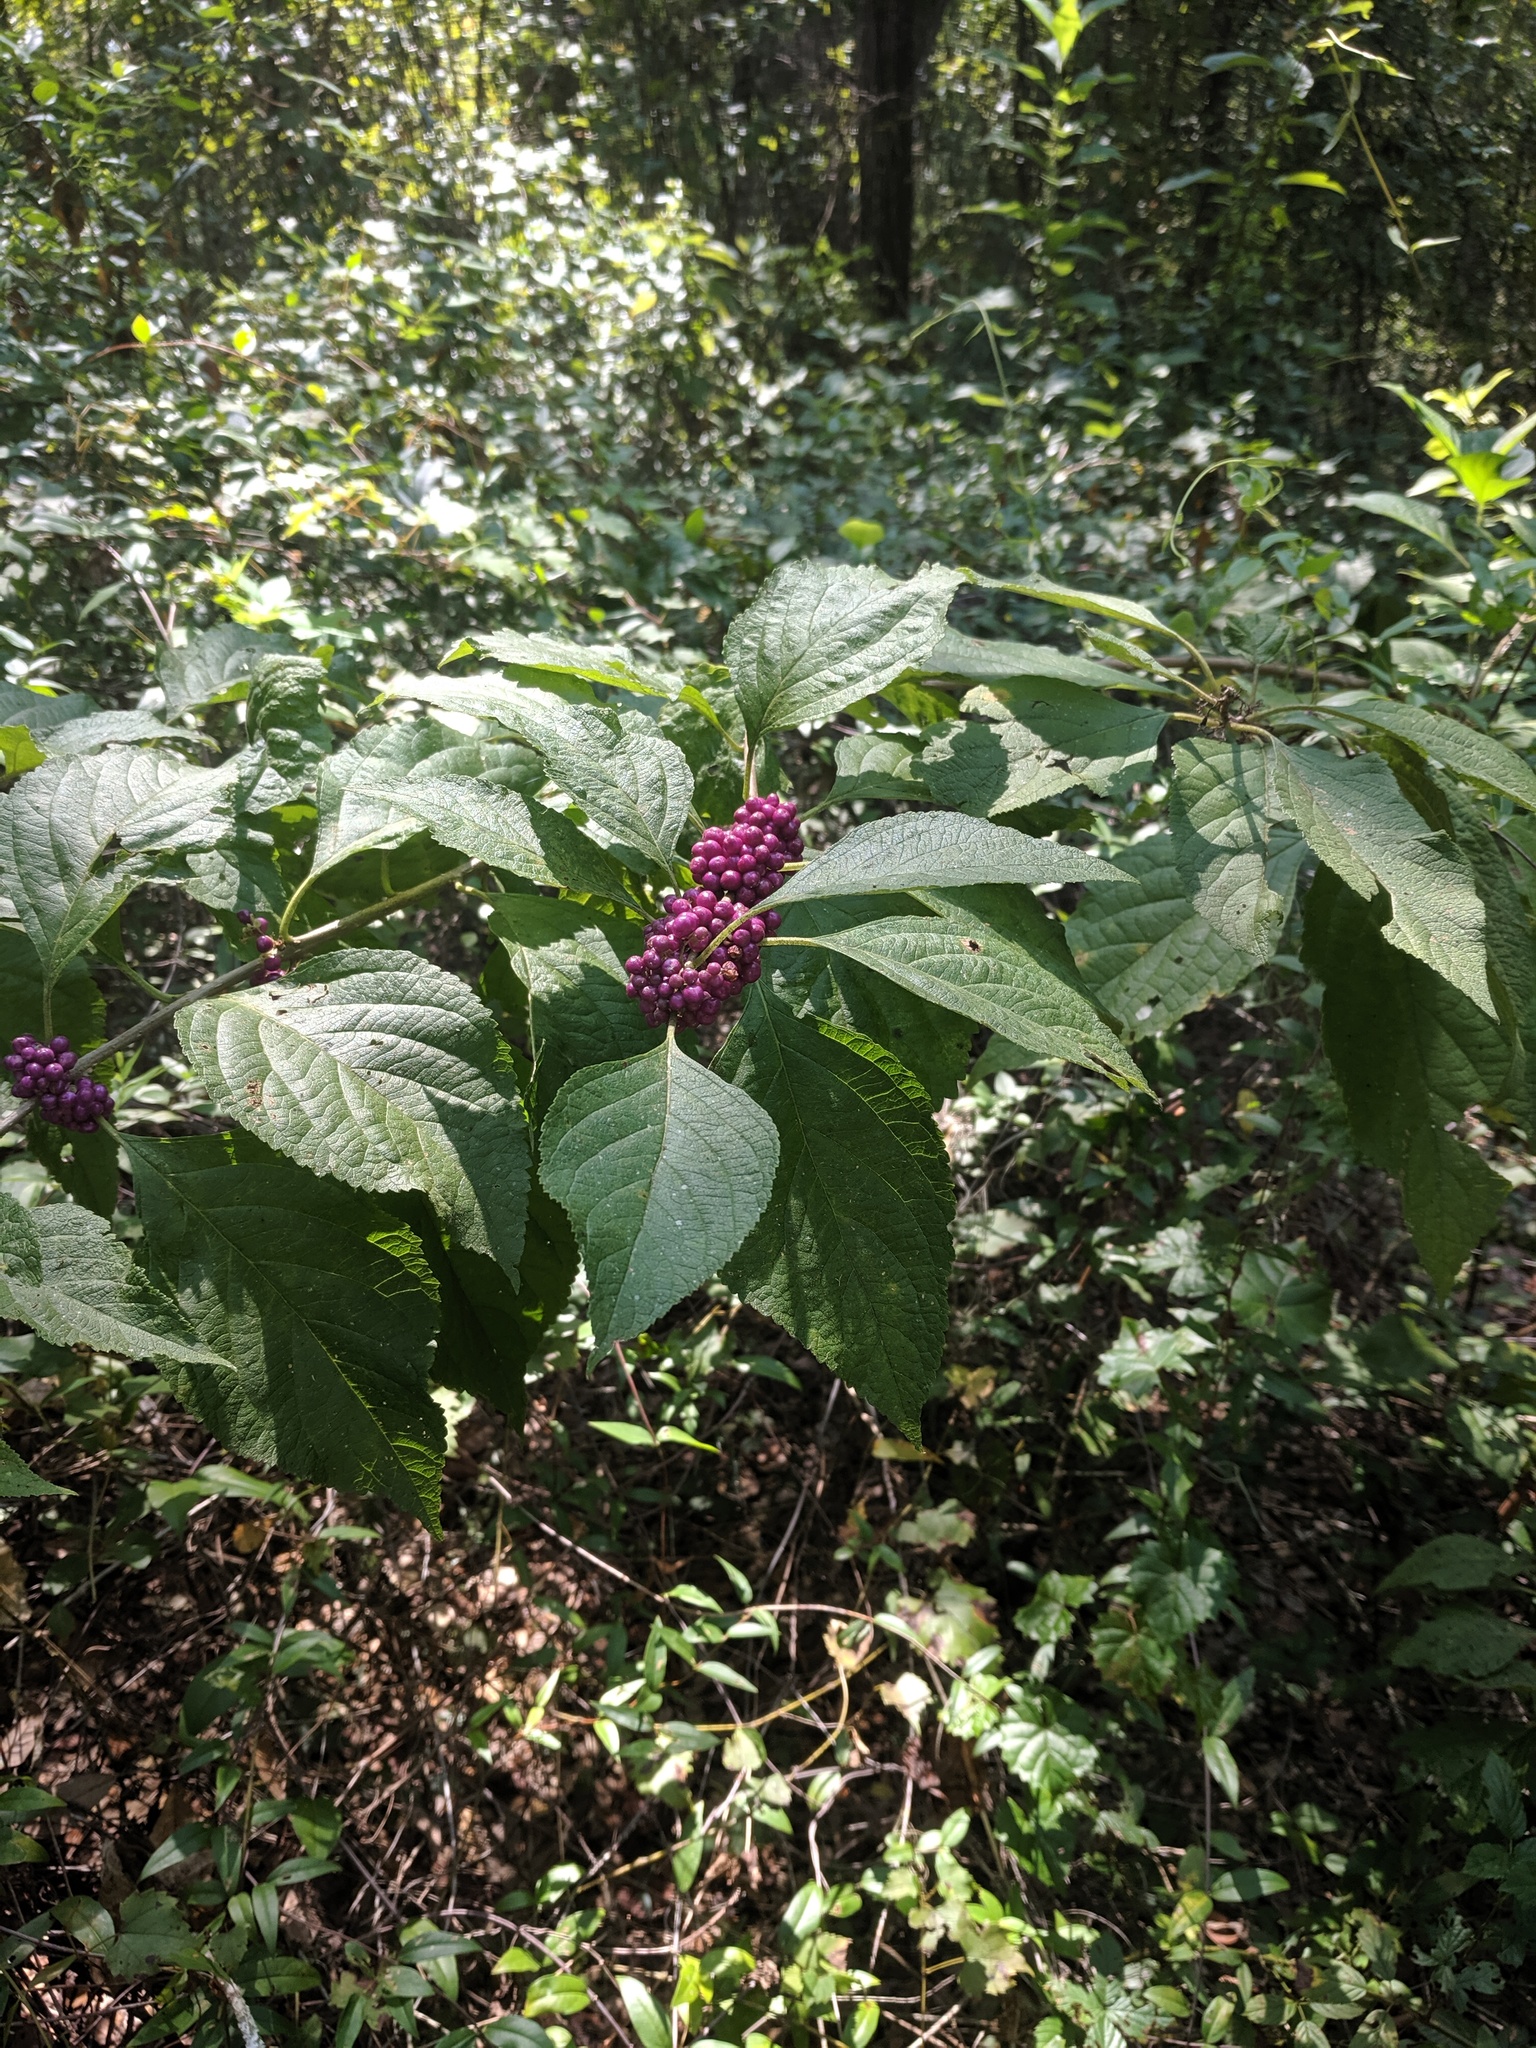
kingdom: Plantae
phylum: Tracheophyta
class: Magnoliopsida
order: Lamiales
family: Lamiaceae
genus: Callicarpa
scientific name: Callicarpa americana
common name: American beautyberry
